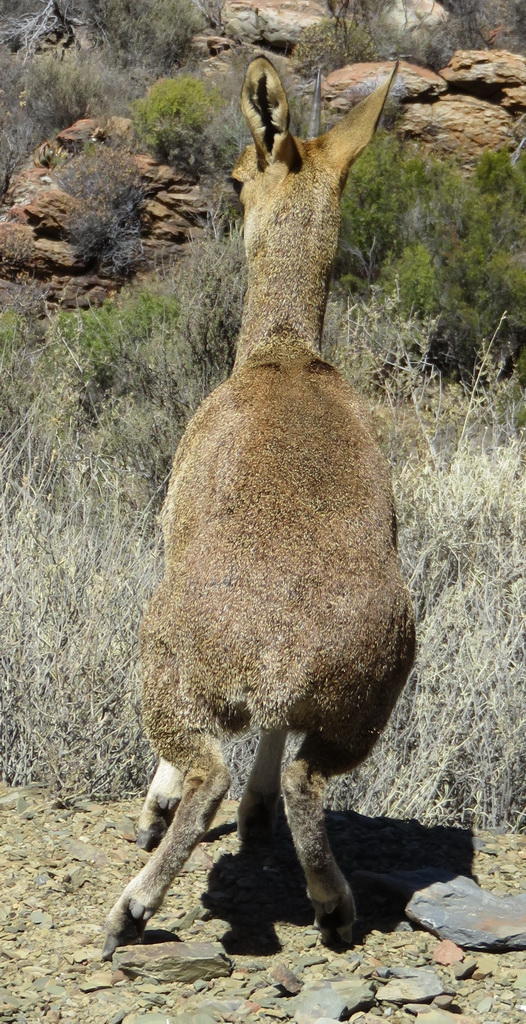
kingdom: Animalia
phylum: Chordata
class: Mammalia
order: Artiodactyla
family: Bovidae
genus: Oreotragus
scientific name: Oreotragus oreotragus
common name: Klipspringer
